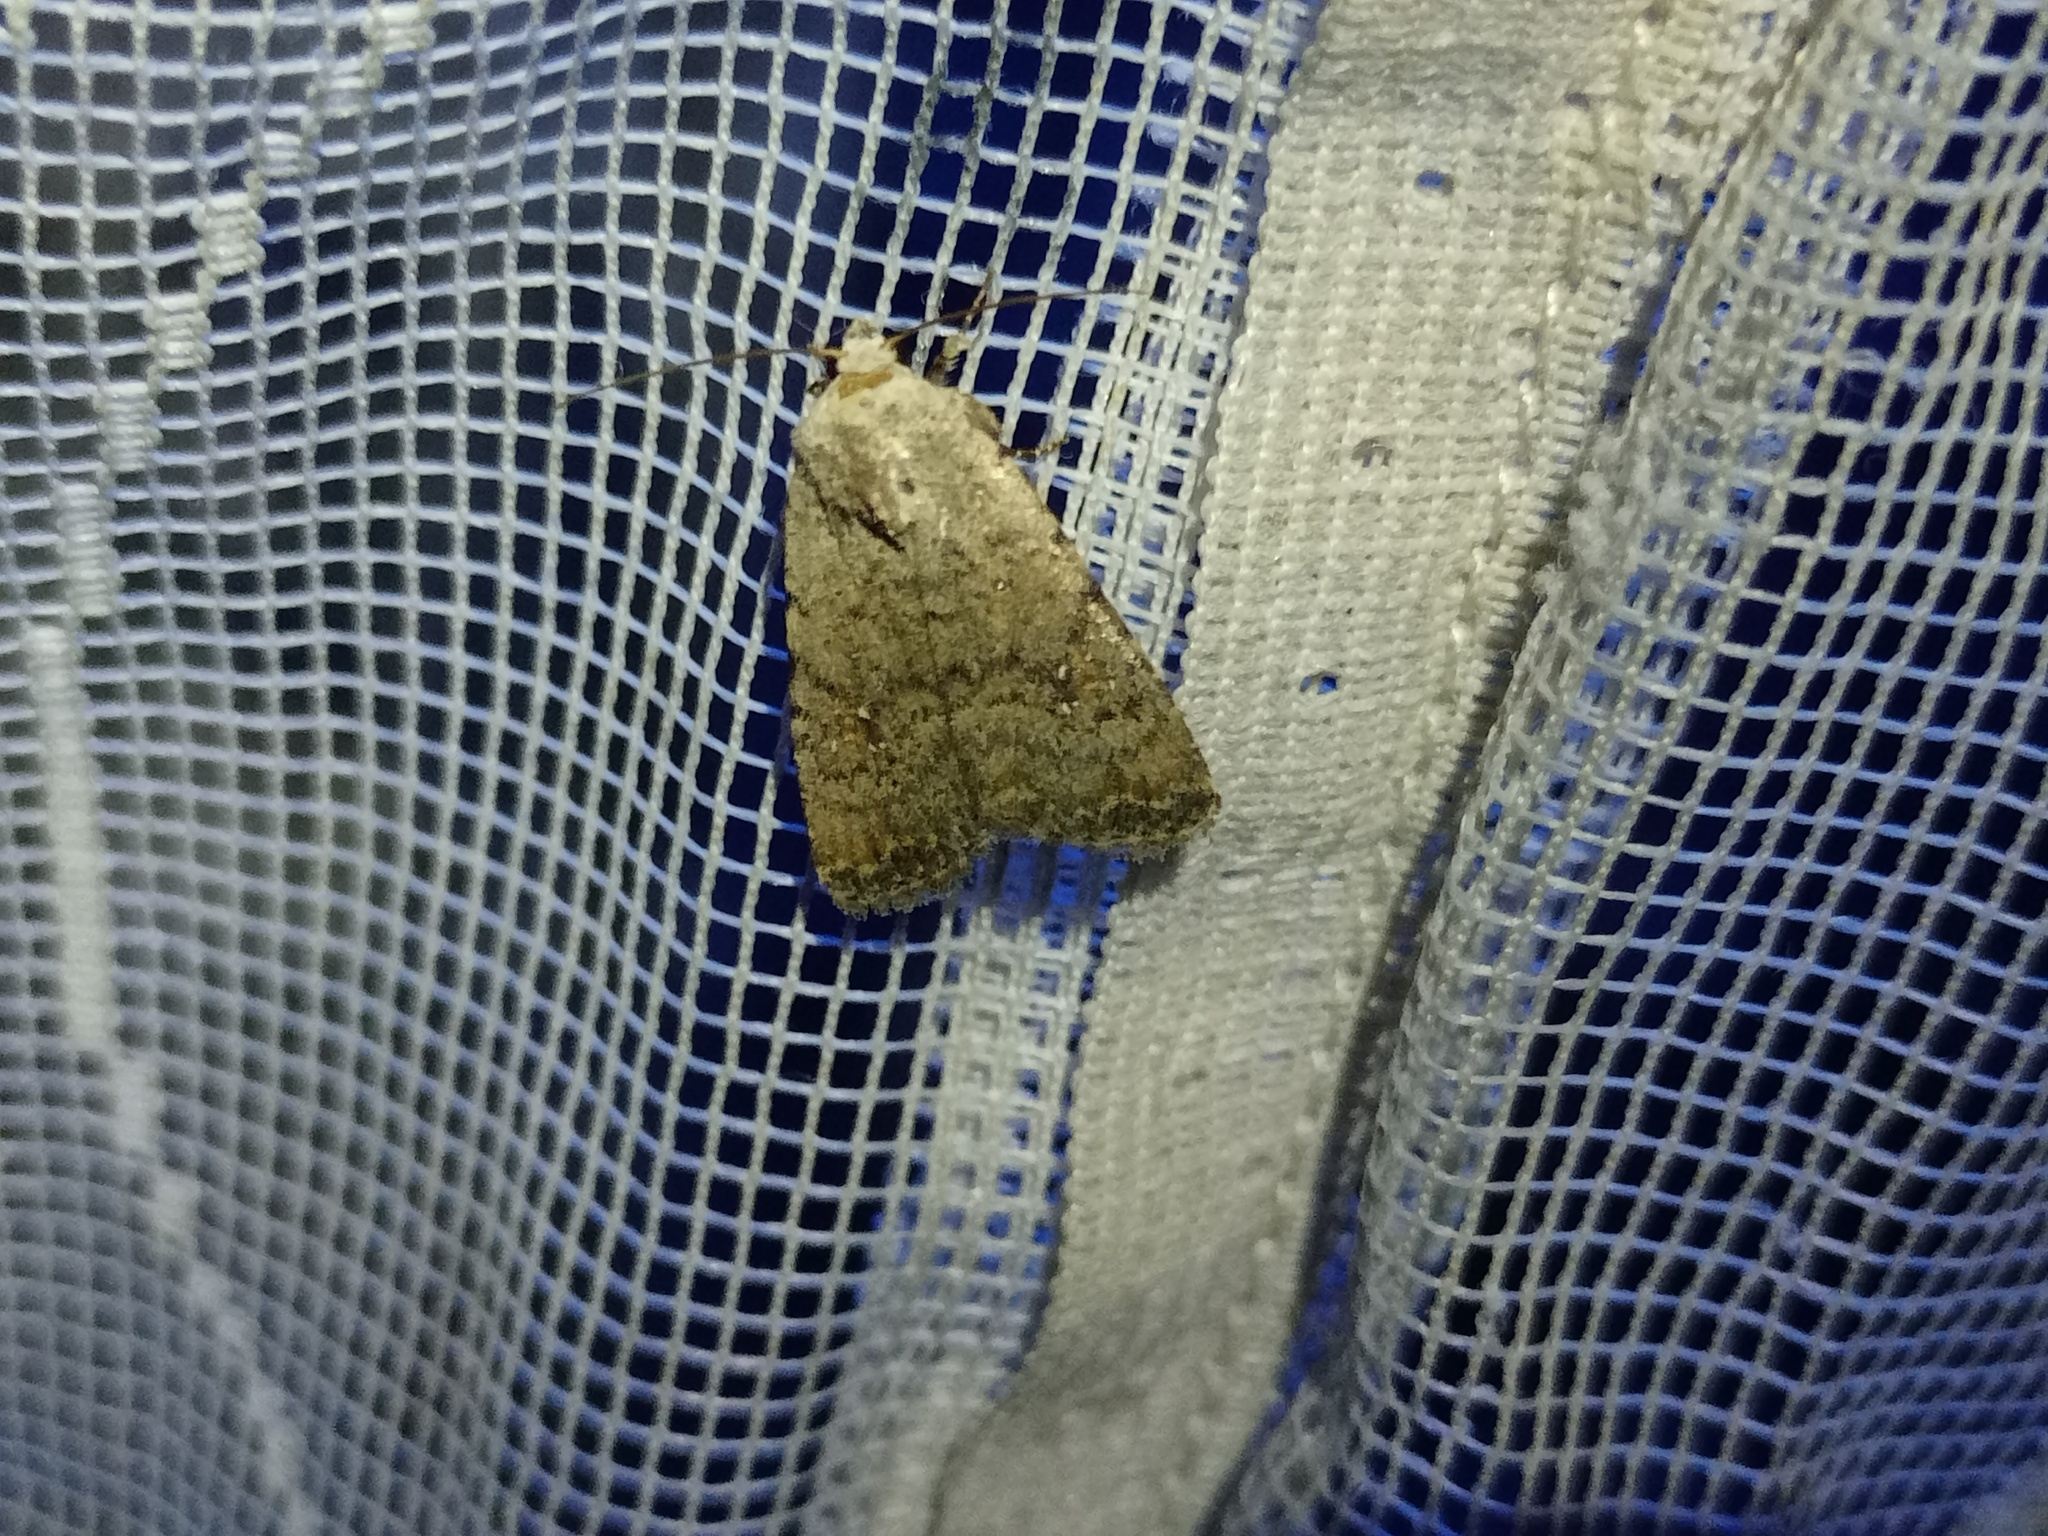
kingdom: Animalia
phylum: Arthropoda
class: Insecta
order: Lepidoptera
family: Noctuidae
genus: Caradrina
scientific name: Caradrina clavipalpis
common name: Pale mottled willow
